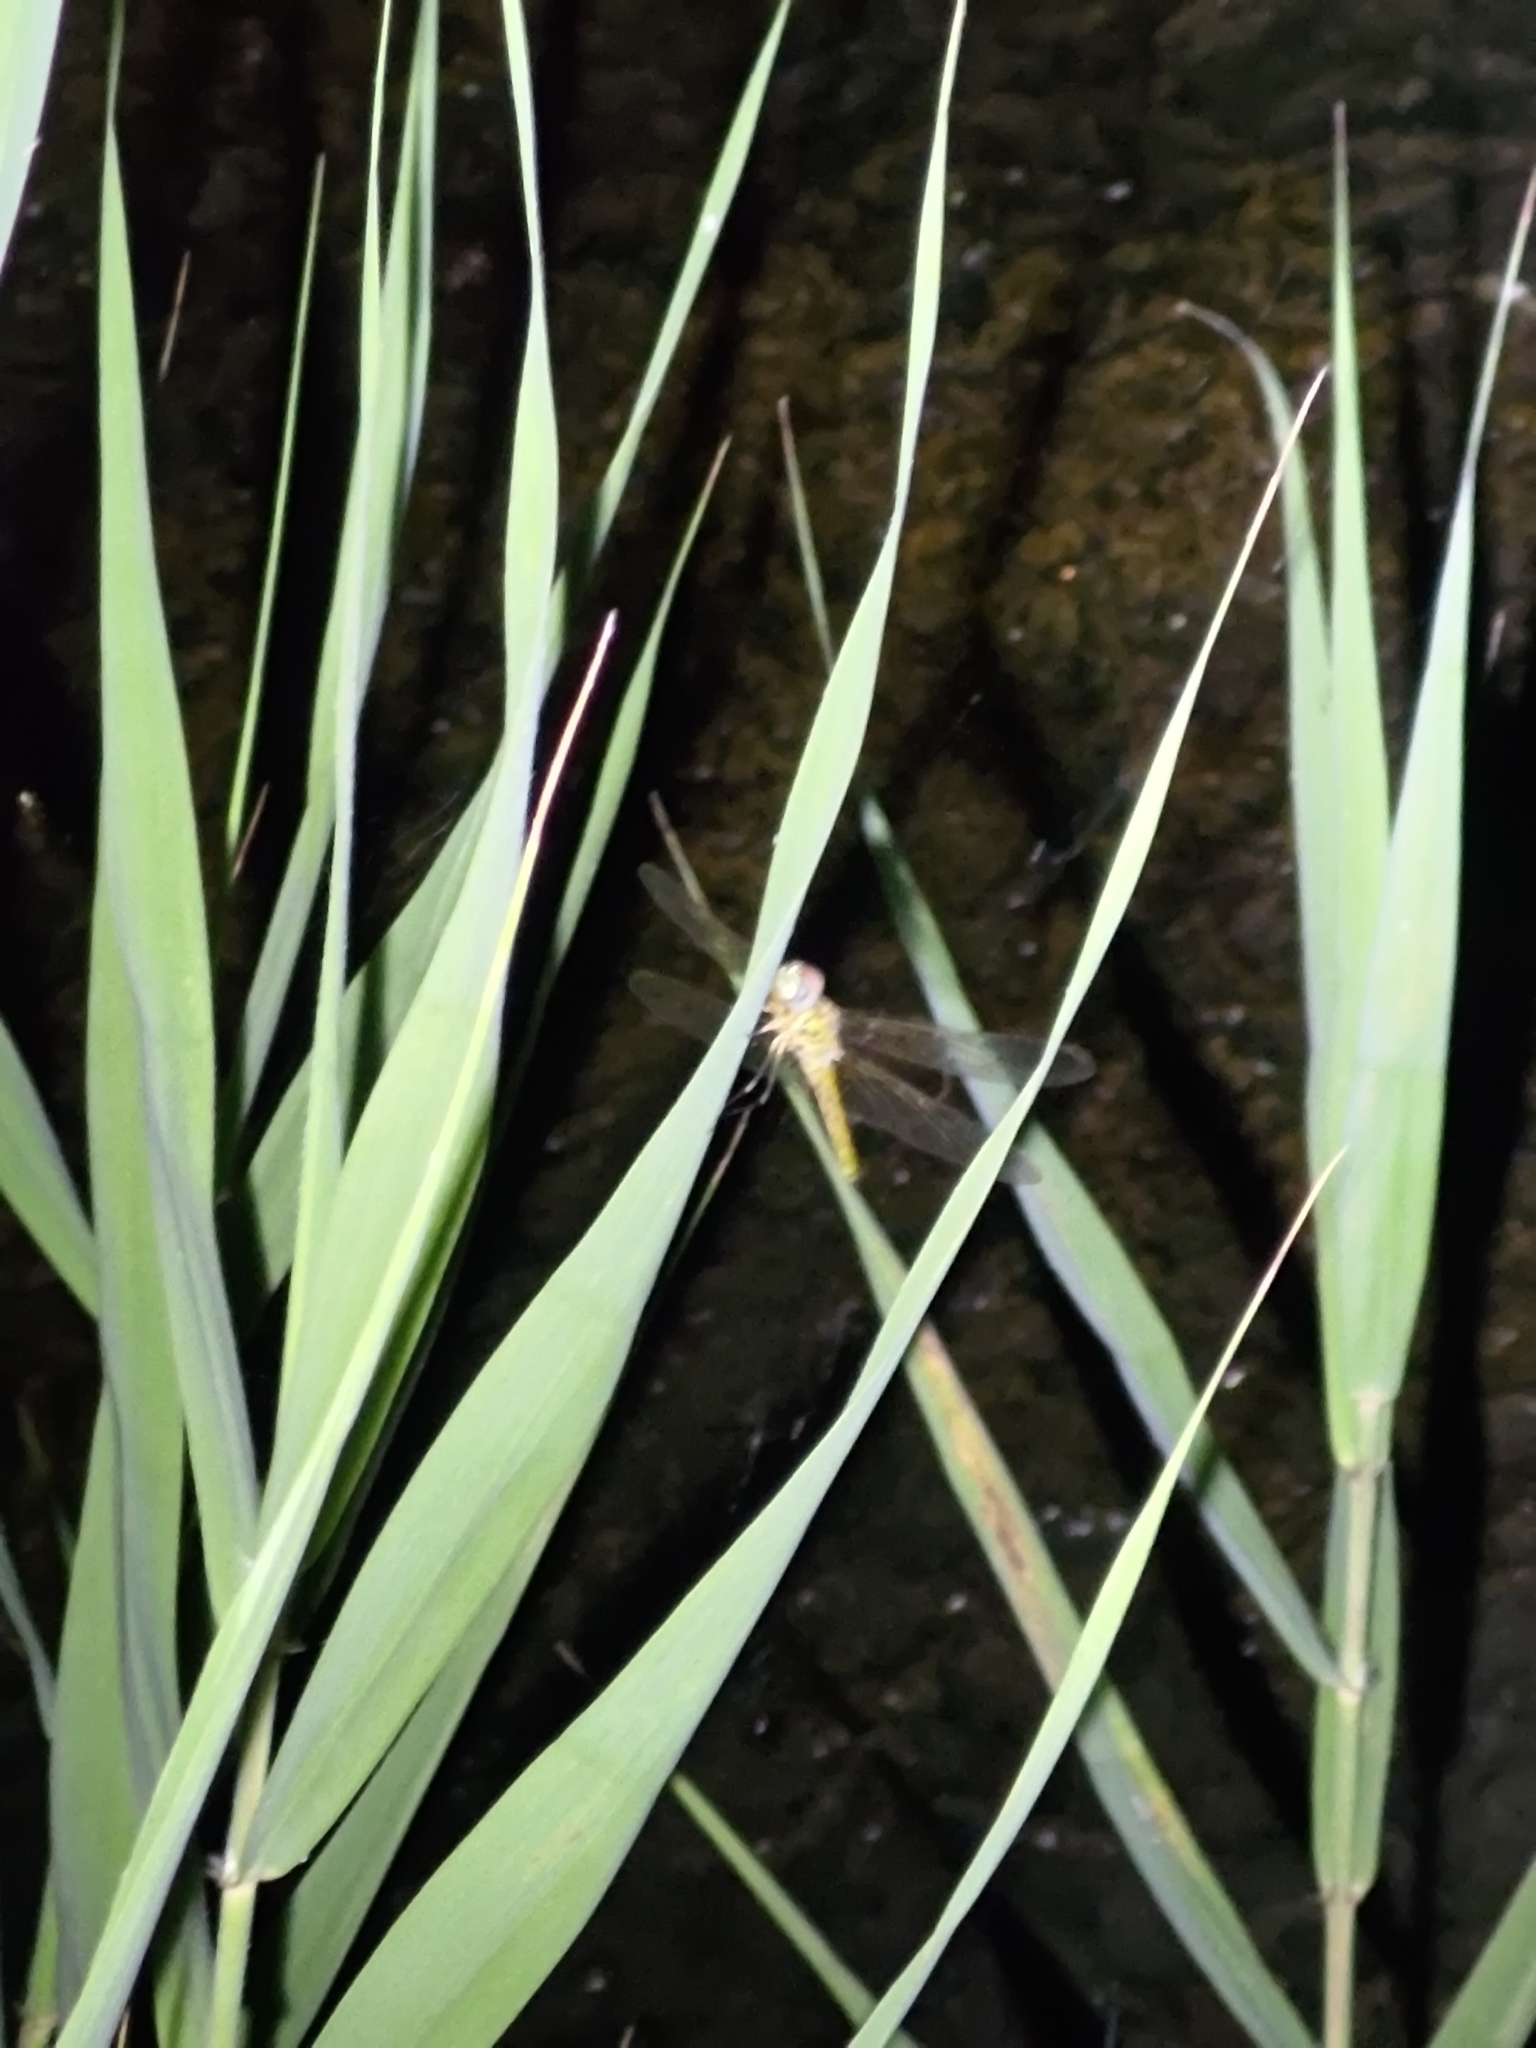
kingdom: Animalia
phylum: Arthropoda
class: Insecta
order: Odonata
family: Libellulidae
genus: Pantala
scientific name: Pantala flavescens
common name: Wandering glider
